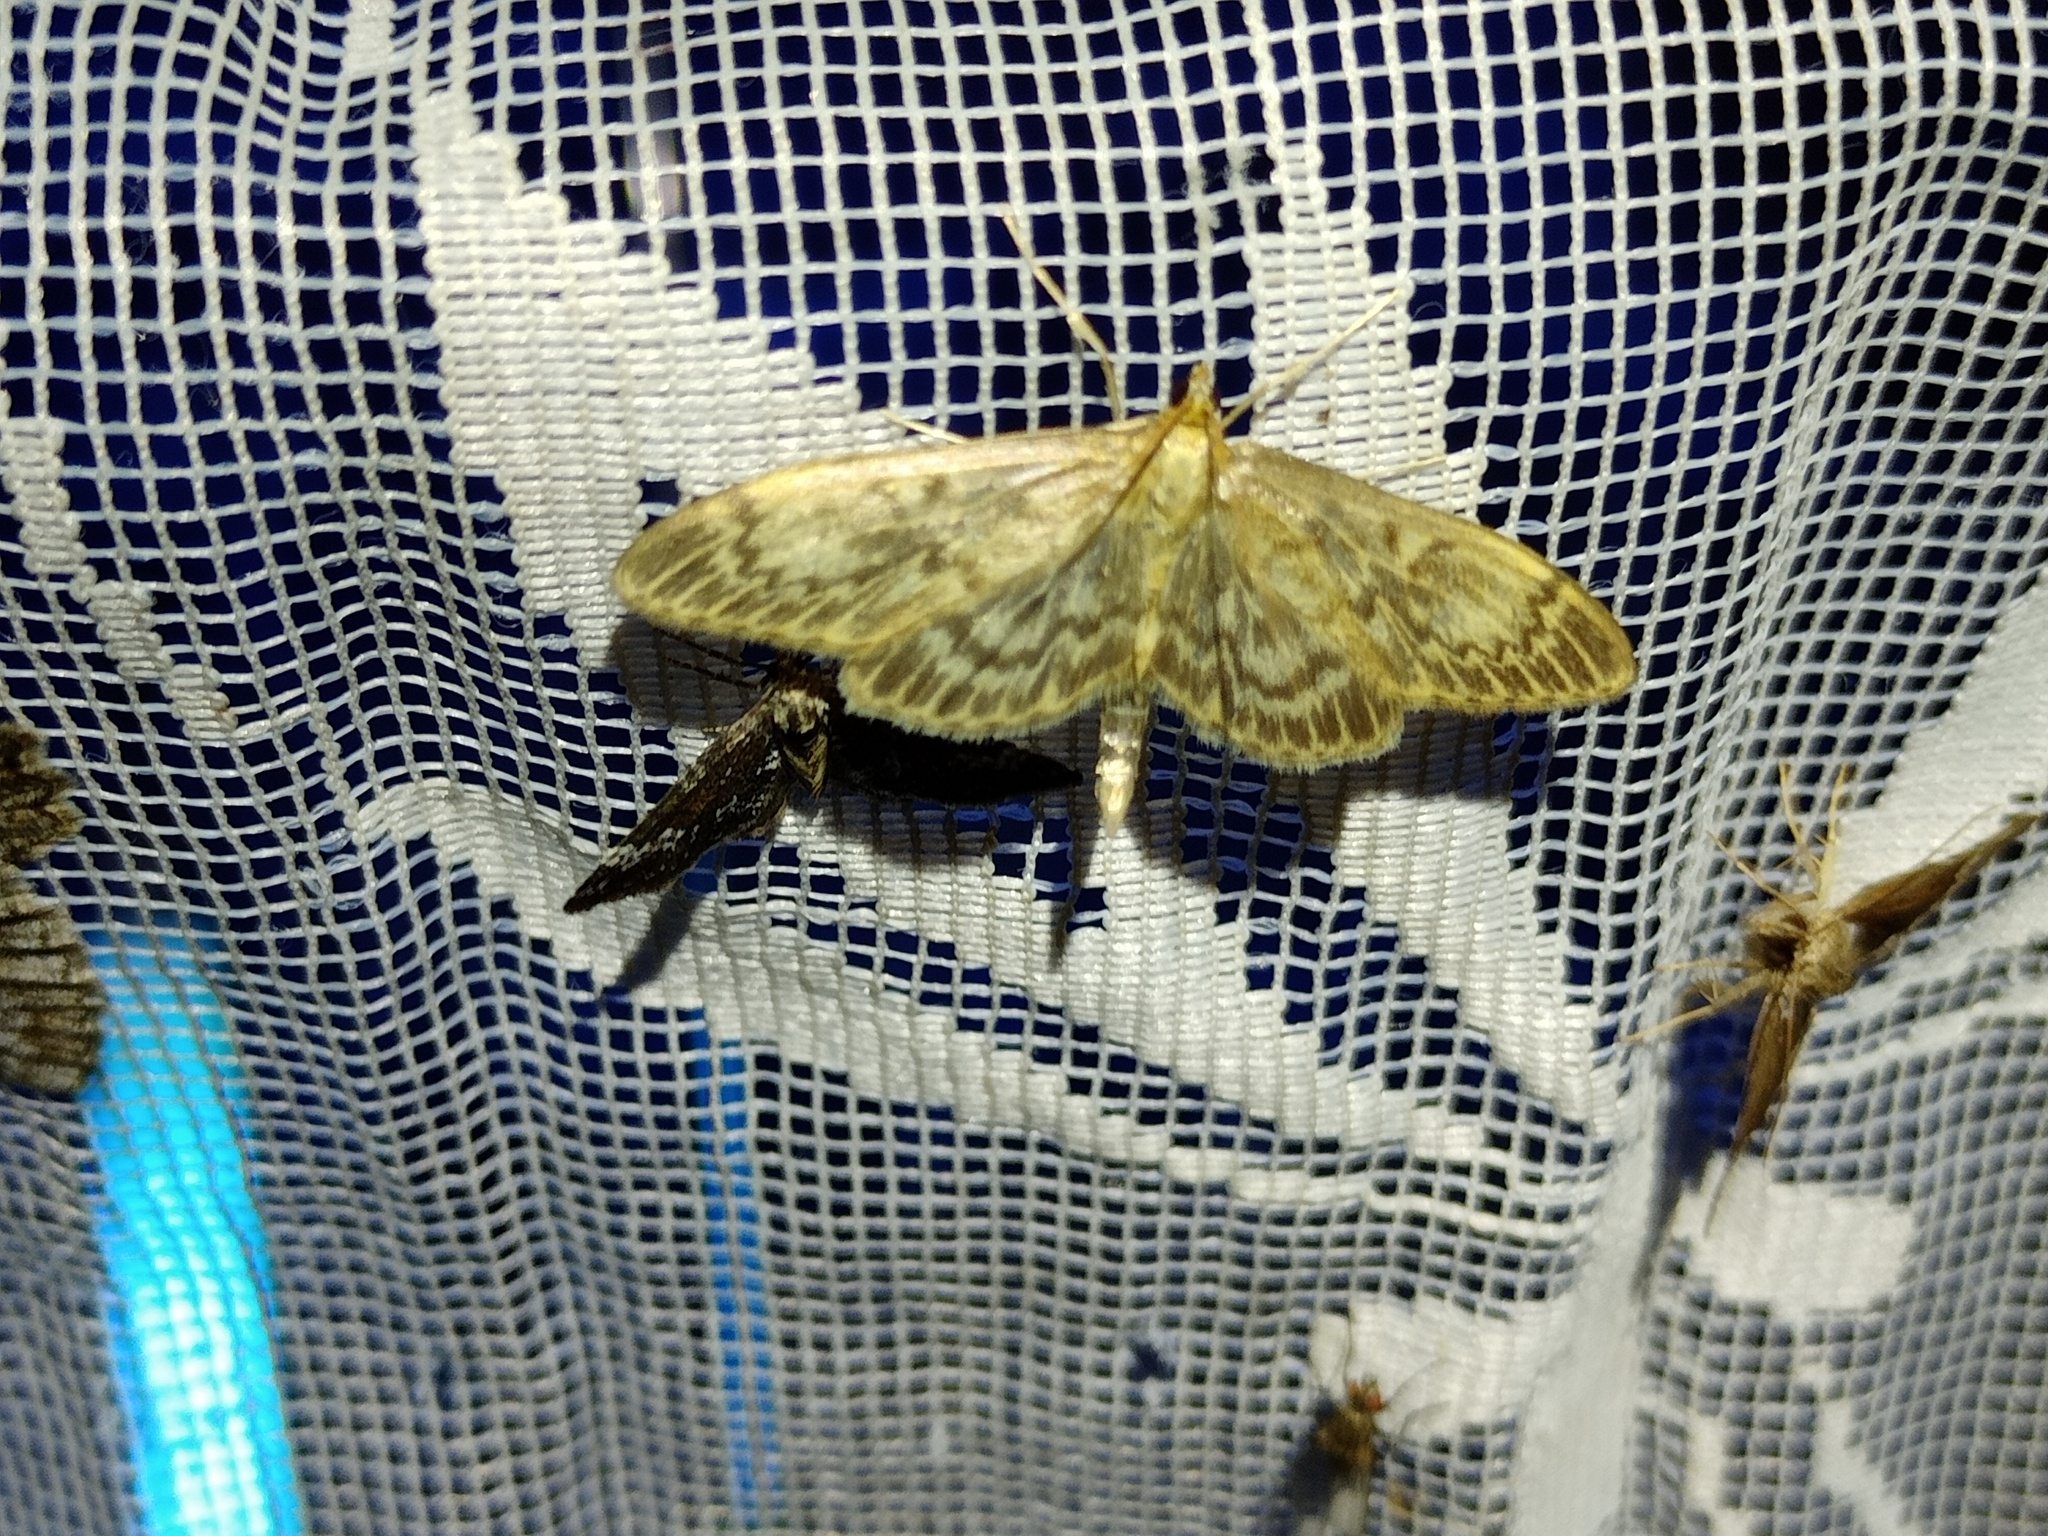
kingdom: Animalia
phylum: Arthropoda
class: Insecta
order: Lepidoptera
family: Crambidae
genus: Anania
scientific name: Anania lancealis
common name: Long-winged pearl
